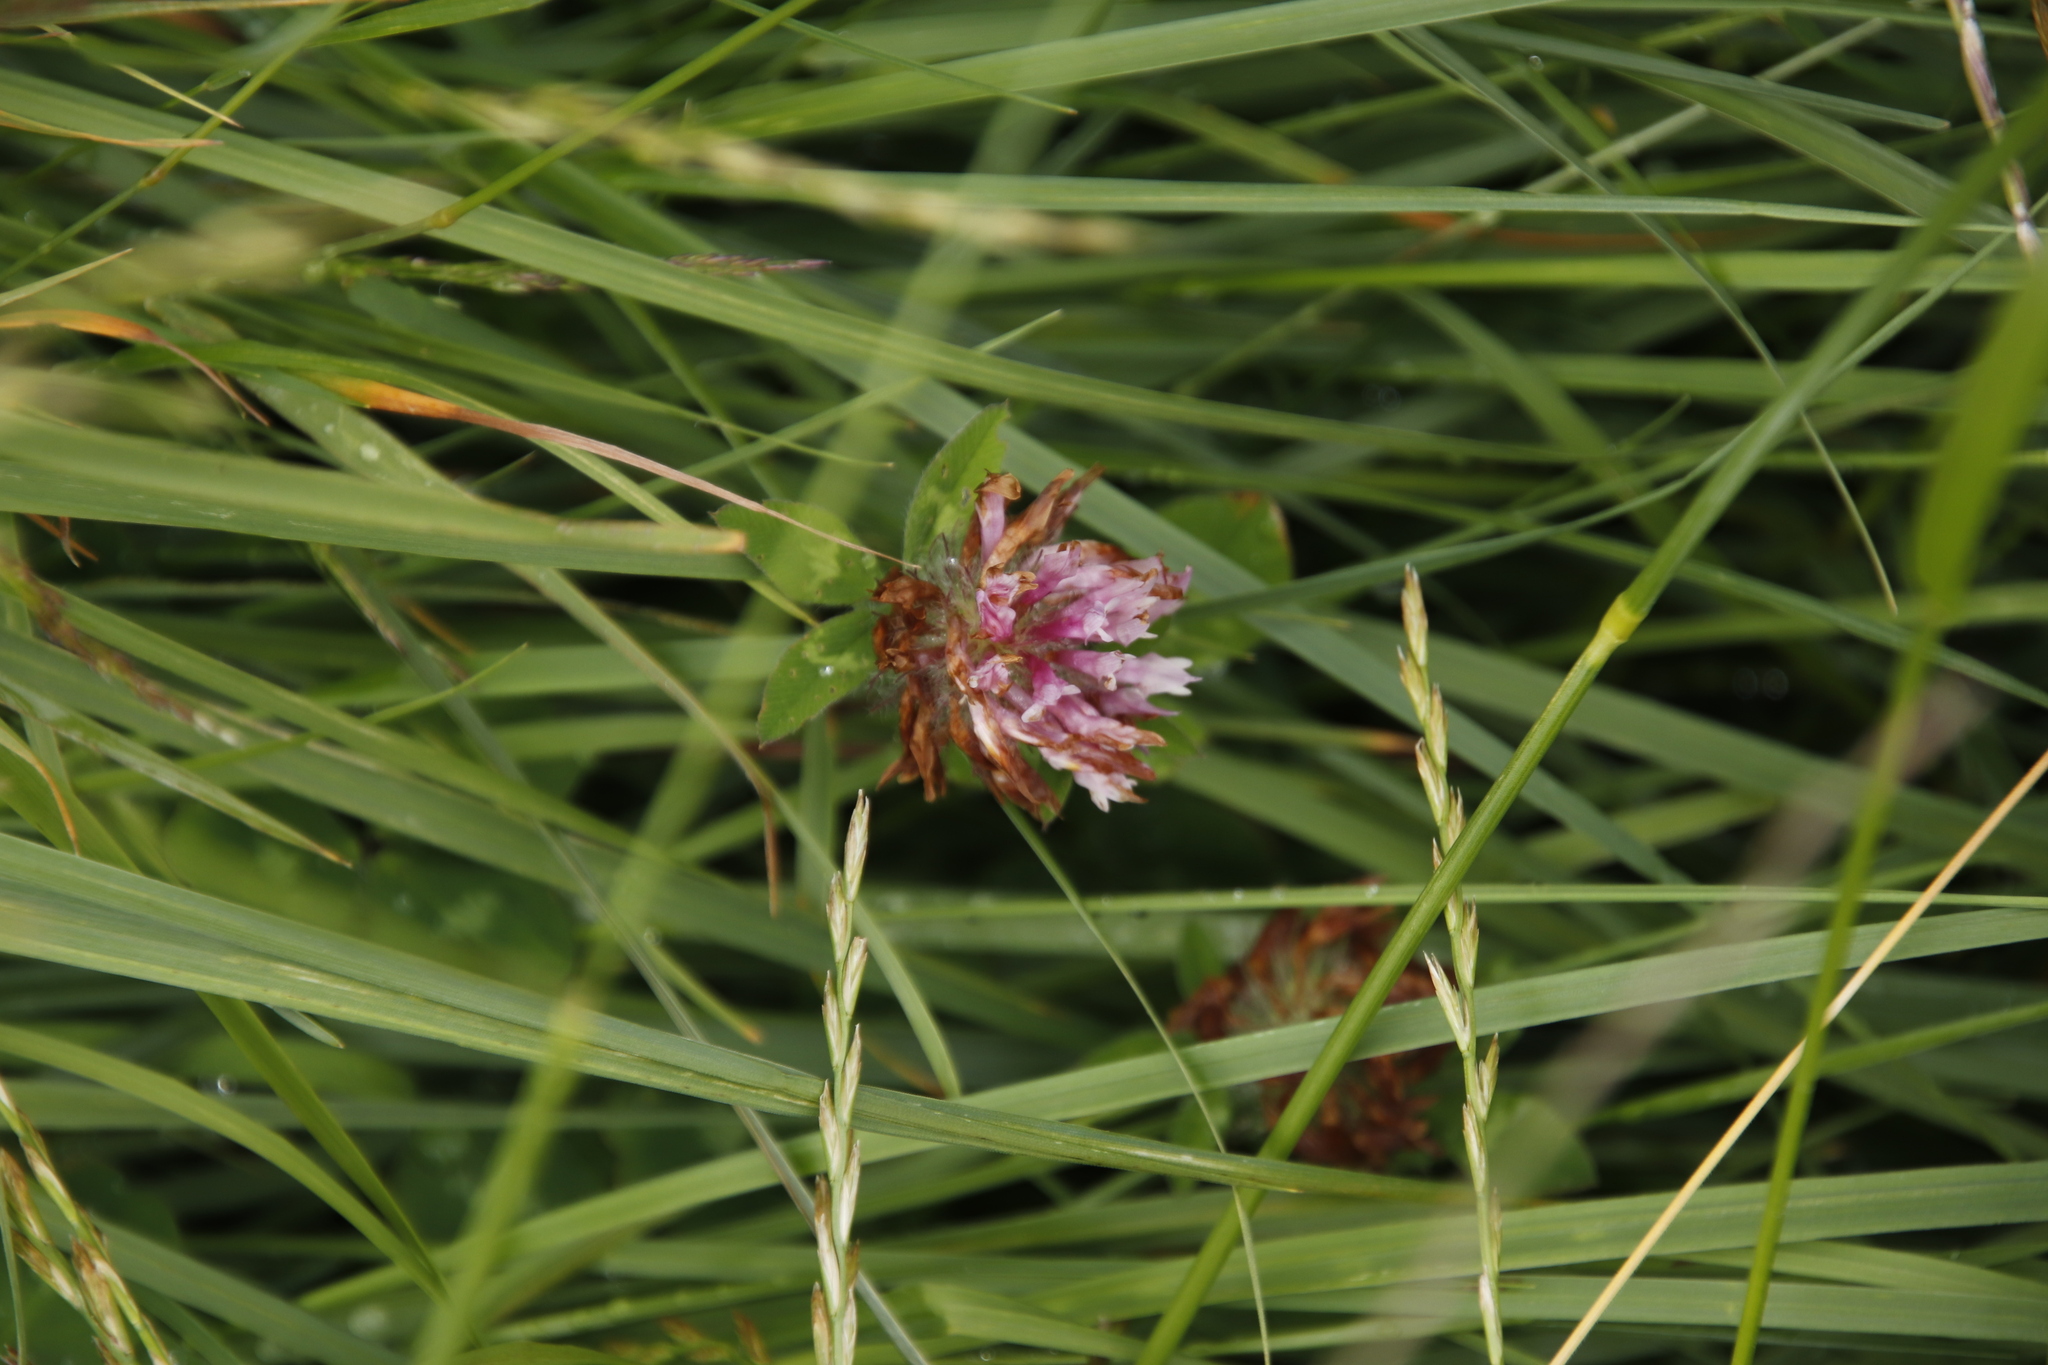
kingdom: Plantae
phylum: Tracheophyta
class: Magnoliopsida
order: Fabales
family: Fabaceae
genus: Trifolium
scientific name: Trifolium pratense
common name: Red clover
